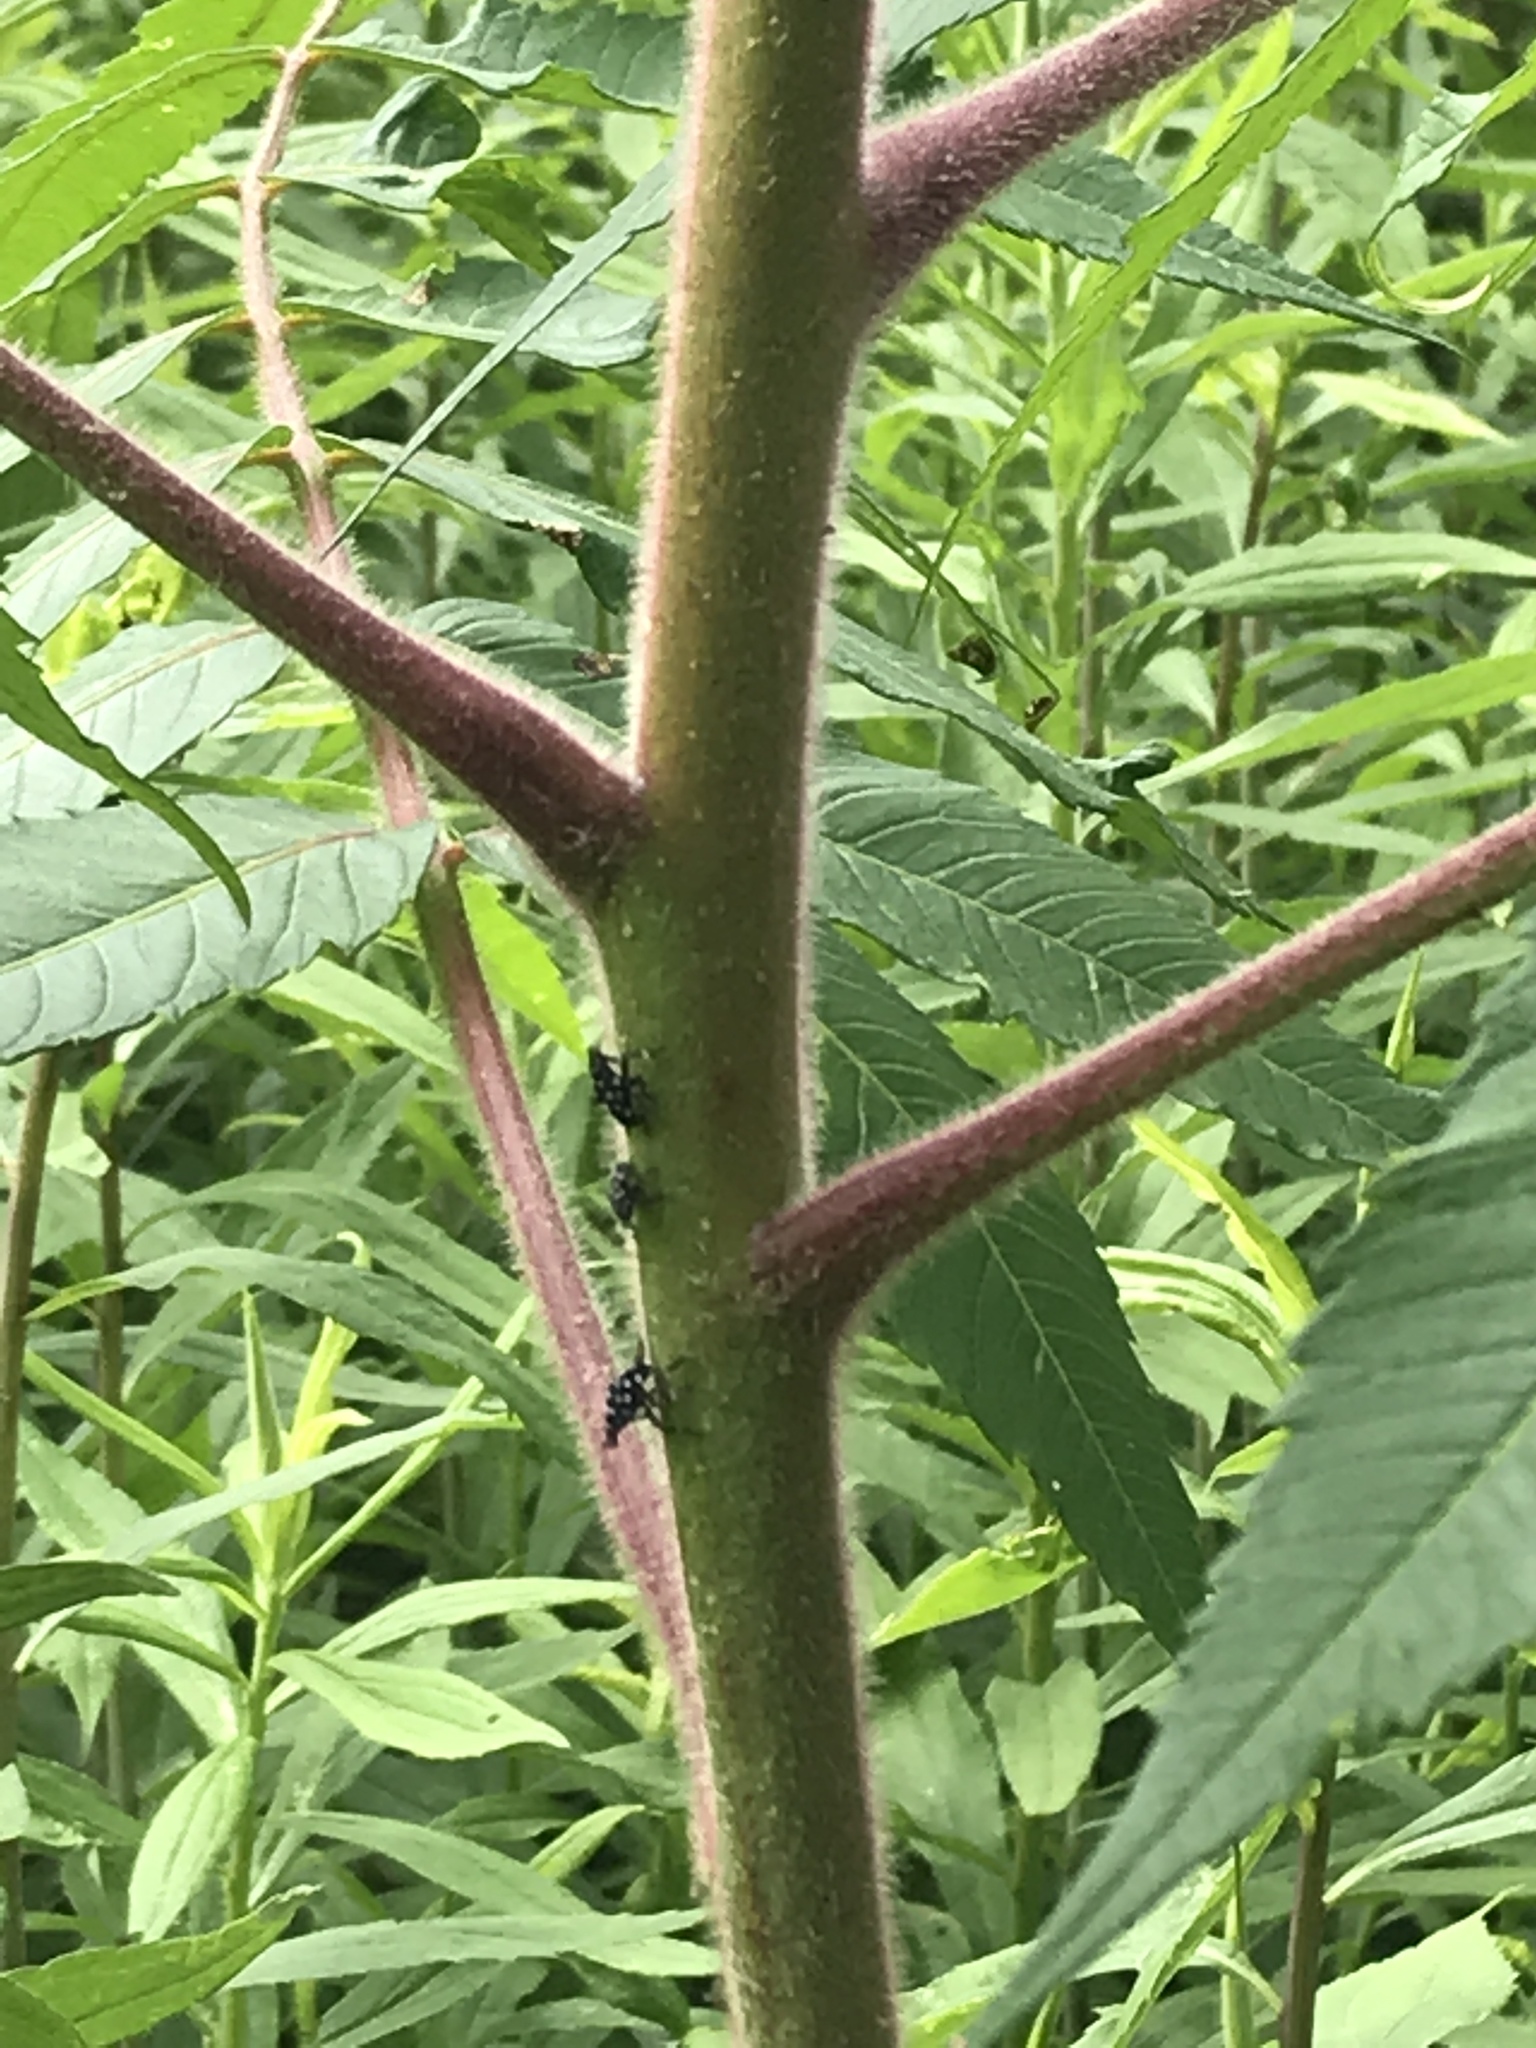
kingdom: Plantae
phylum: Tracheophyta
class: Magnoliopsida
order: Sapindales
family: Anacardiaceae
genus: Rhus
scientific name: Rhus typhina
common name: Staghorn sumac
